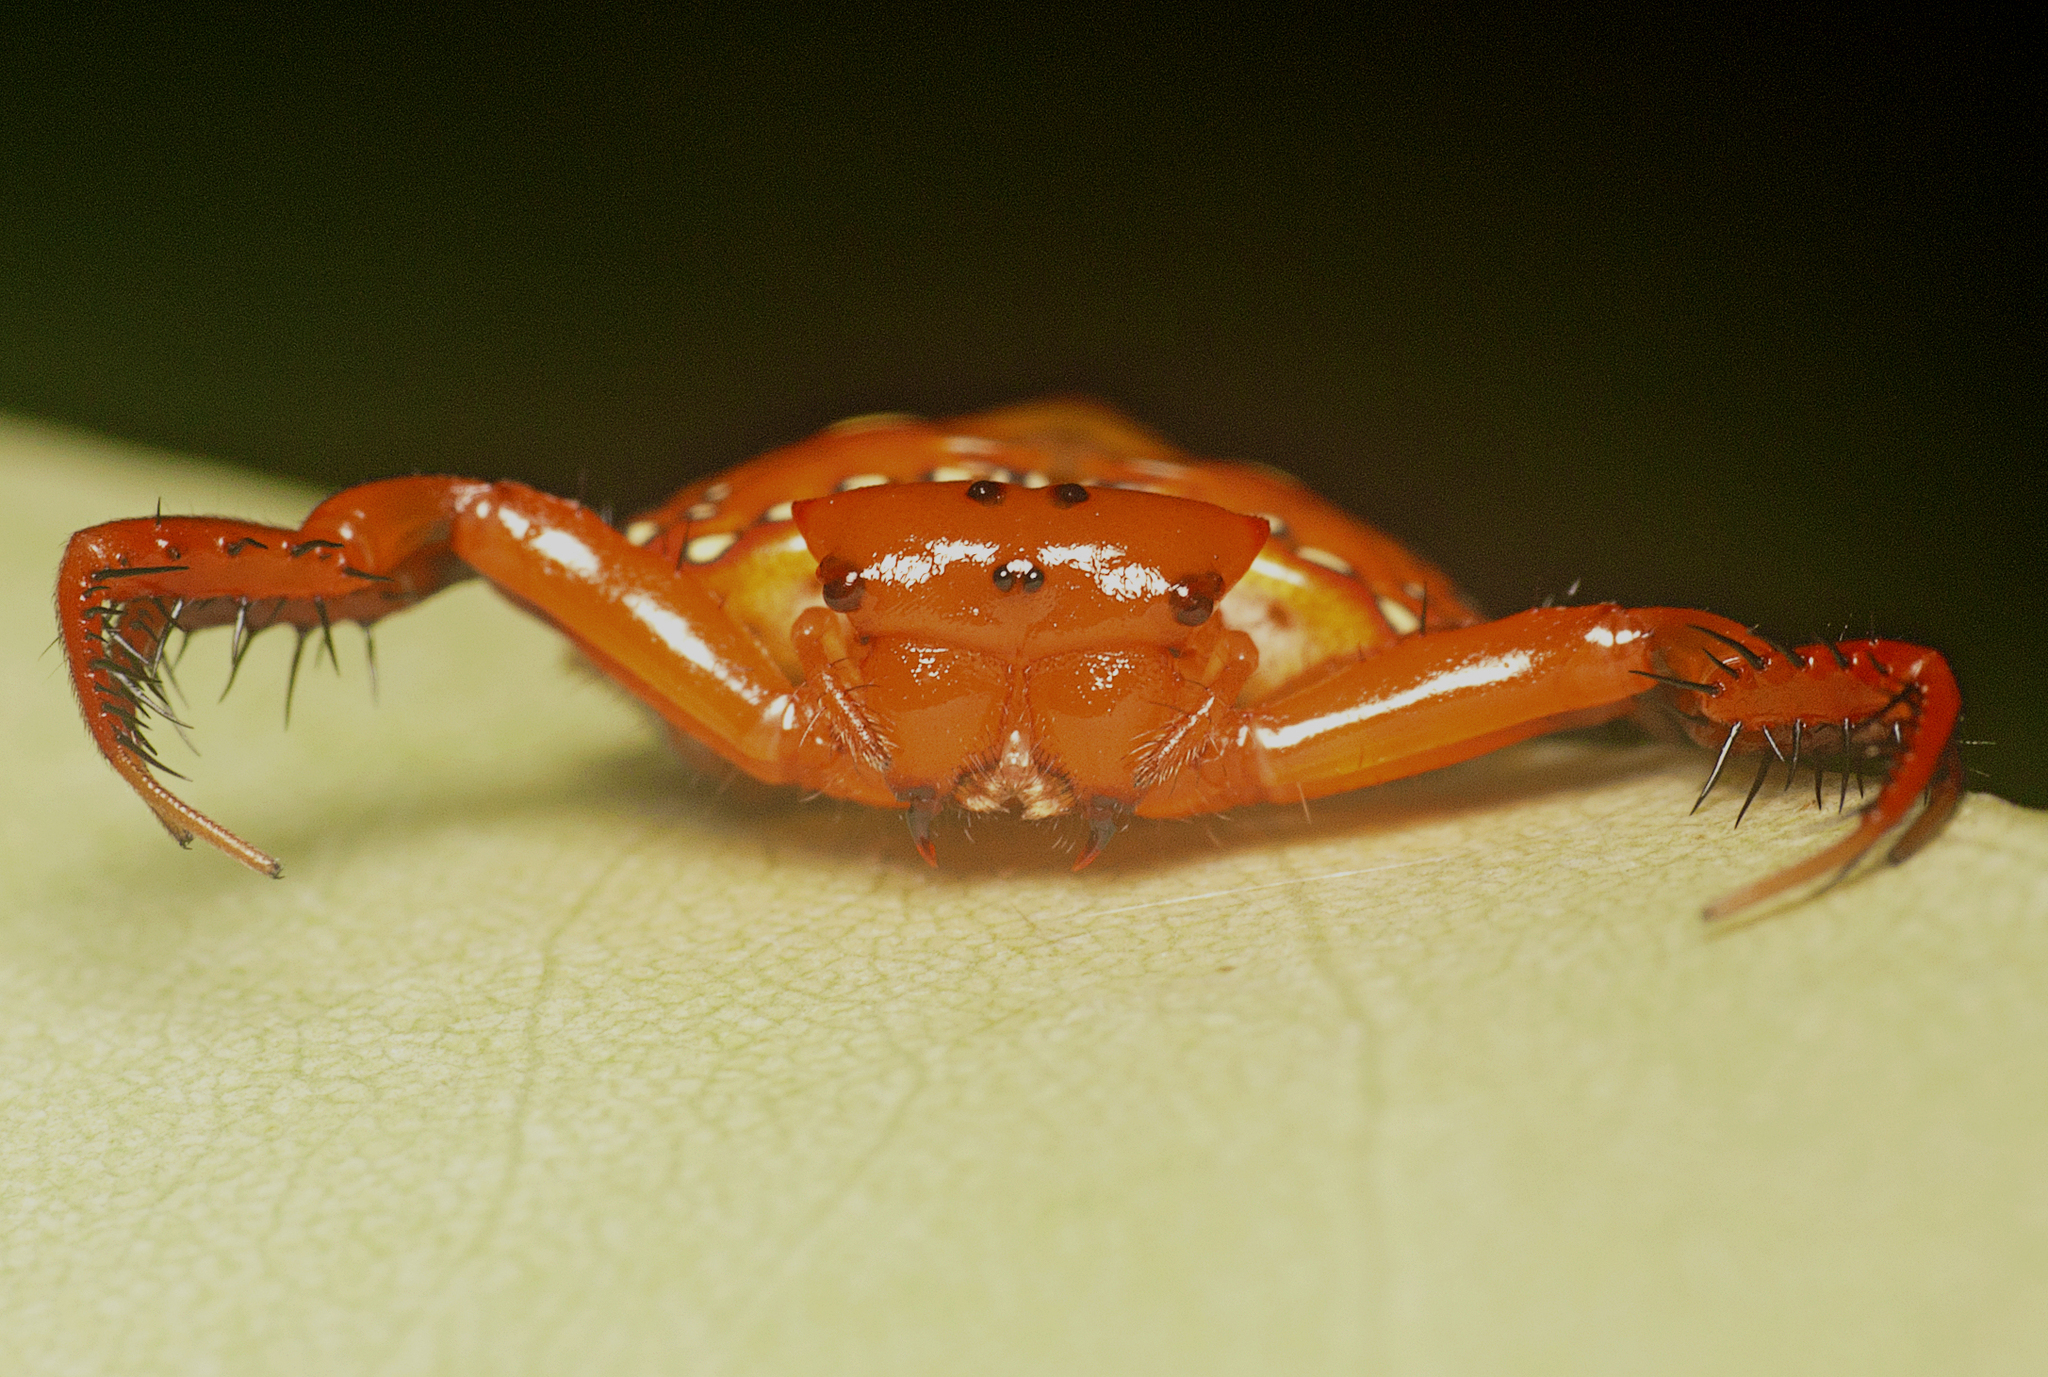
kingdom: Animalia
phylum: Arthropoda
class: Arachnida
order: Araneae
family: Arkyidae
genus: Arkys
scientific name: Arkys lancearius
